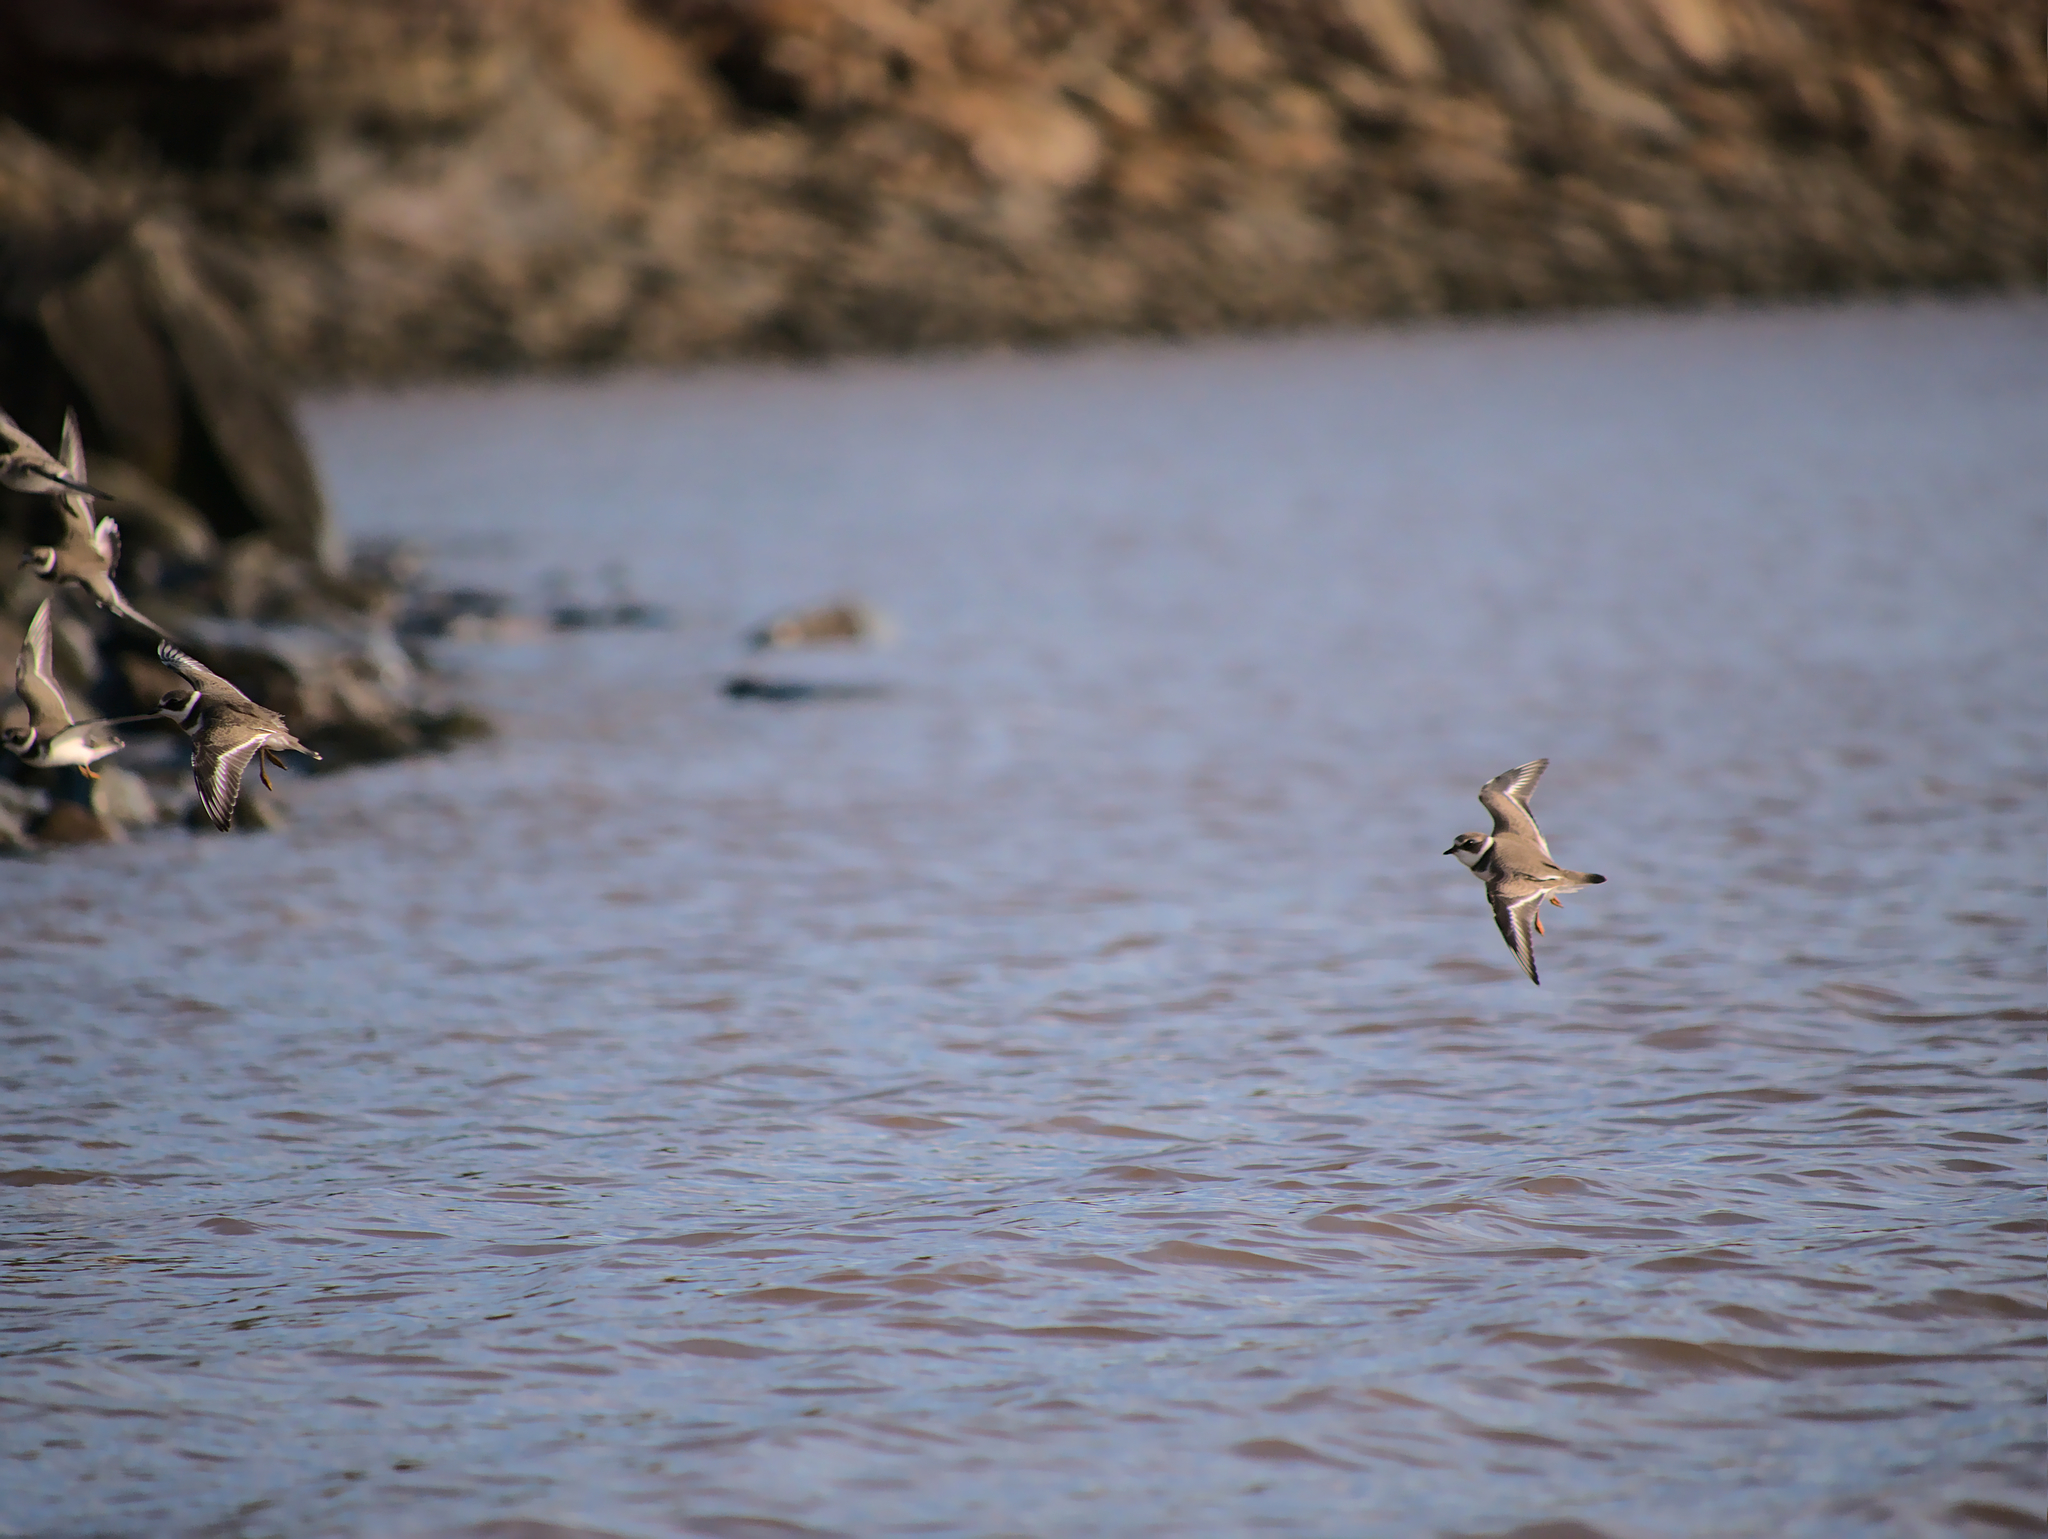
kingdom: Animalia
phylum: Chordata
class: Aves
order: Charadriiformes
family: Charadriidae
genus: Charadrius
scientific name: Charadrius semipalmatus
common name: Semipalmated plover
